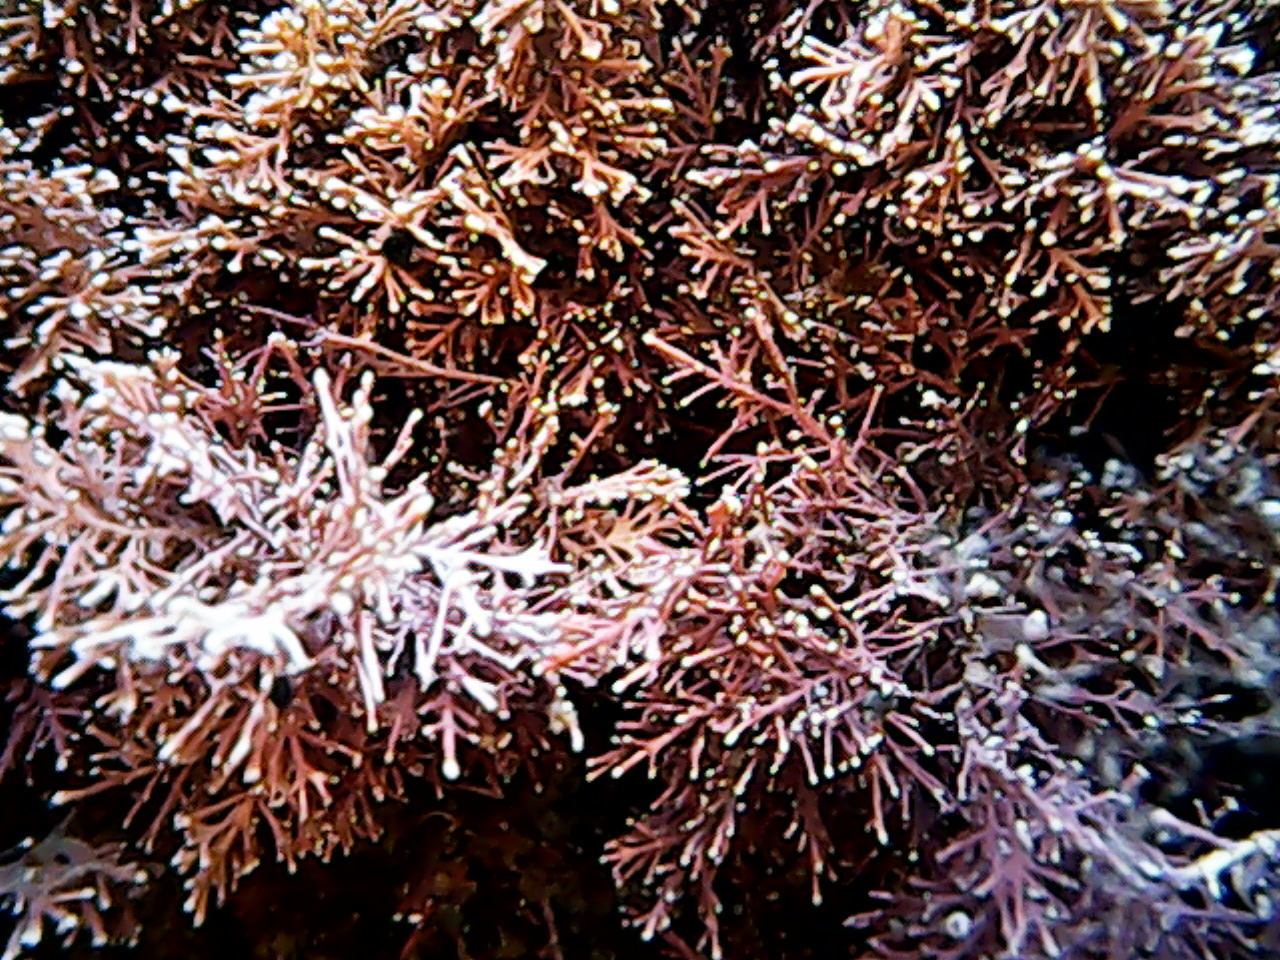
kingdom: Plantae
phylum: Rhodophyta
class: Florideophyceae
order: Corallinales
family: Corallinaceae
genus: Corallina
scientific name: Corallina officinalis
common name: Coral weed
